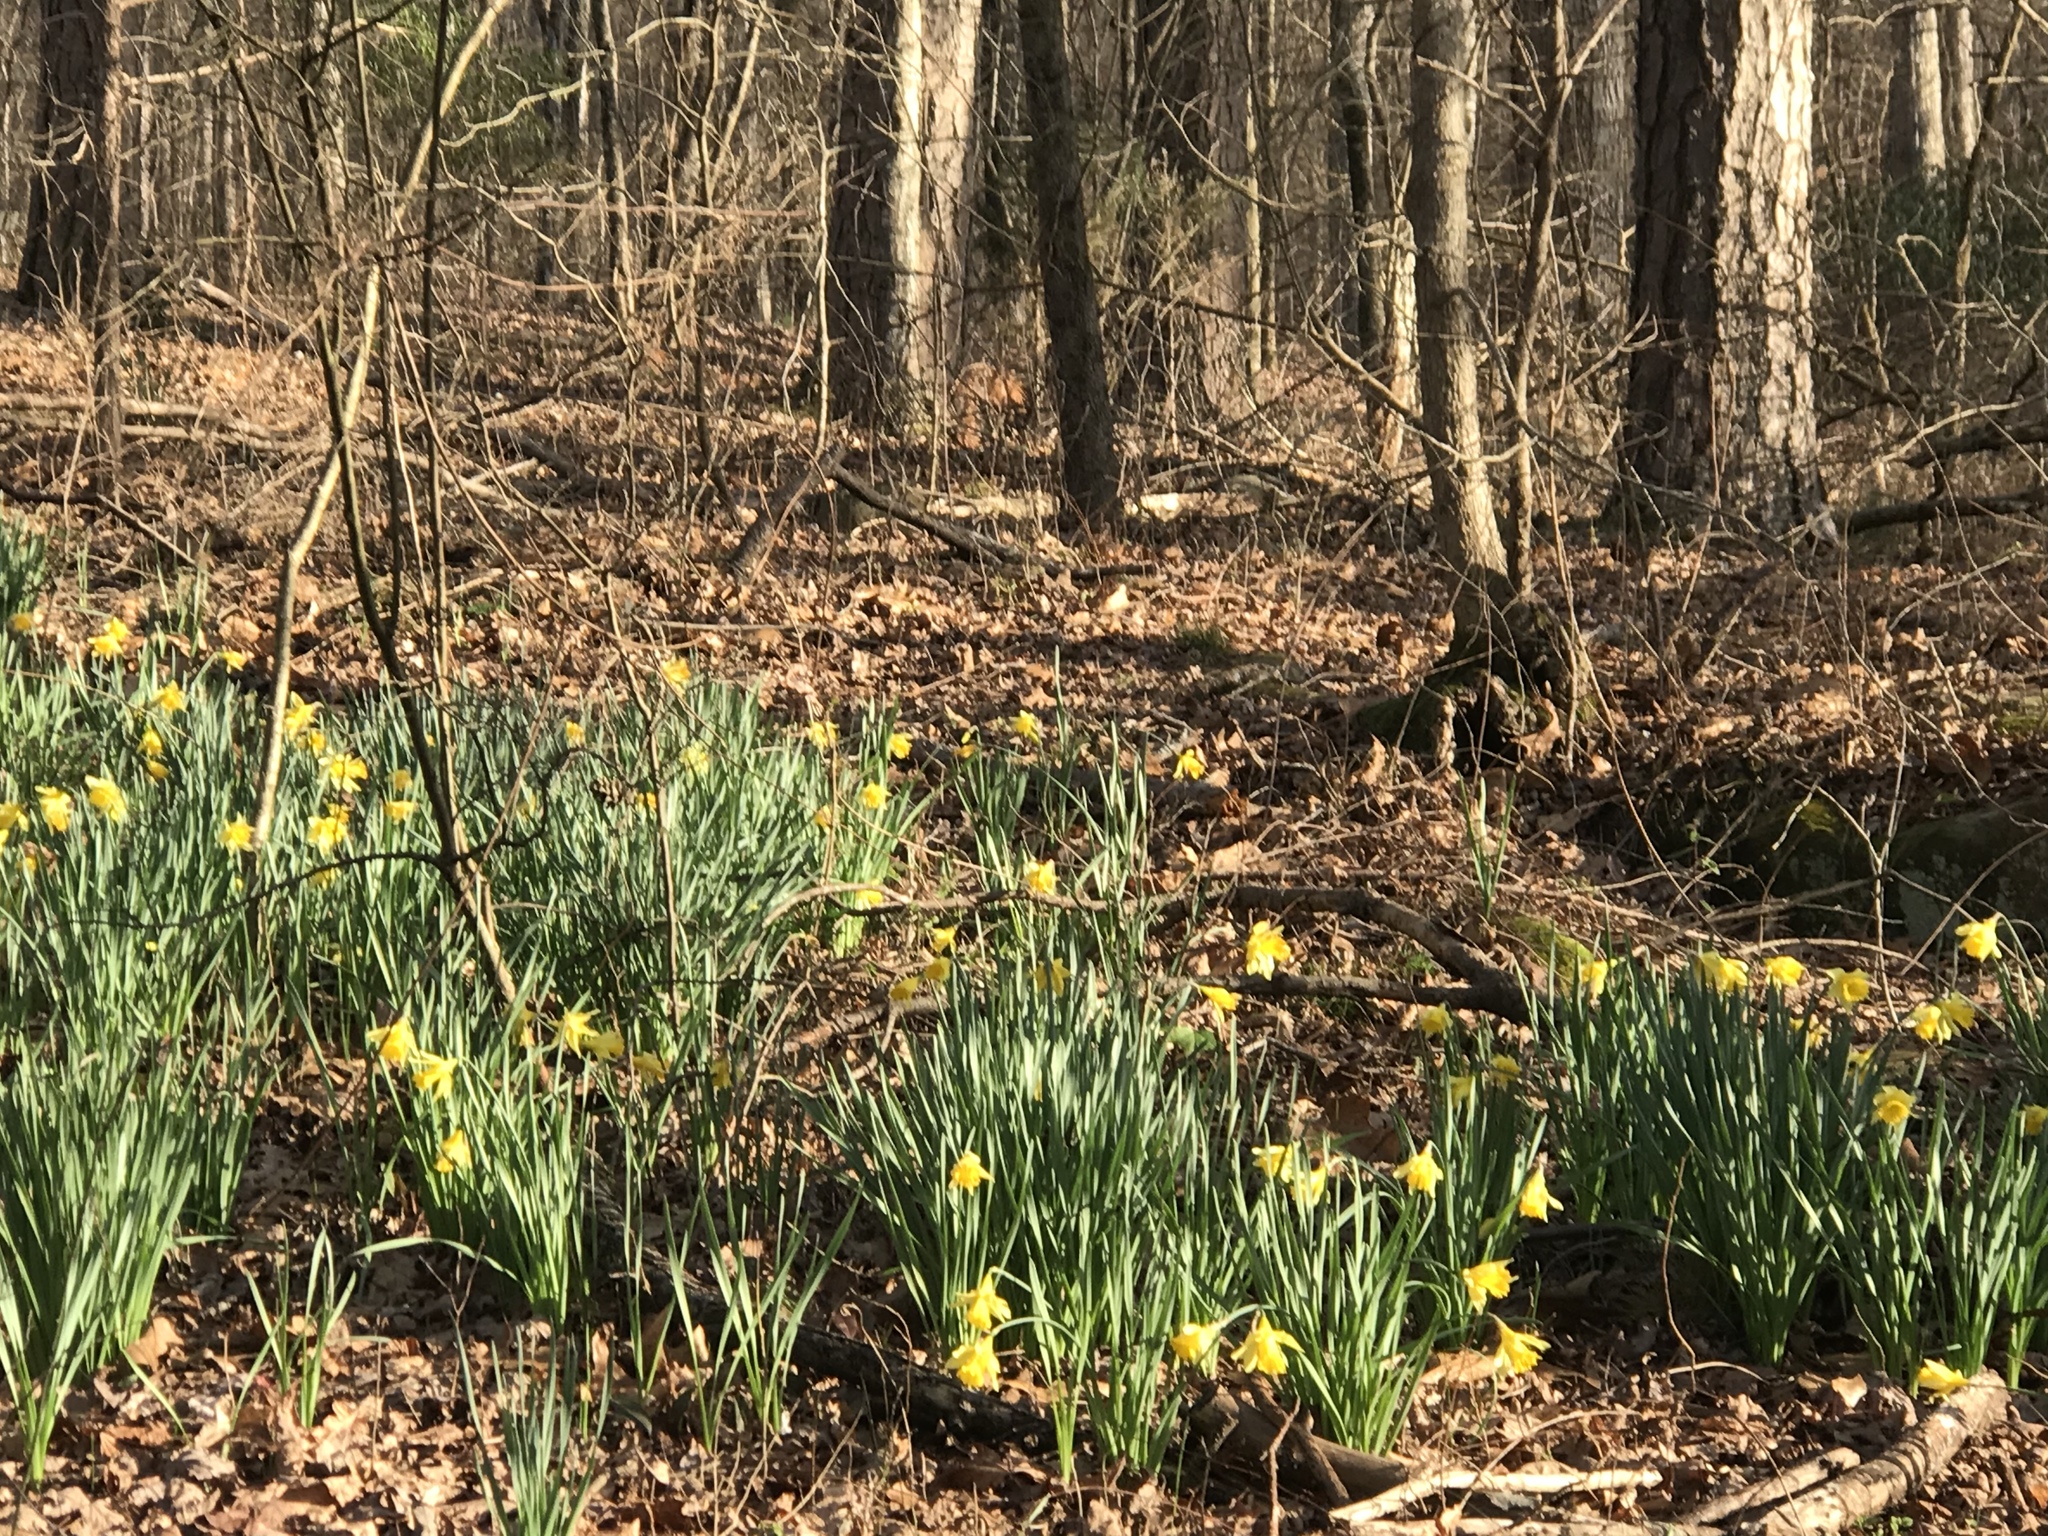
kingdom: Plantae
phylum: Tracheophyta
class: Liliopsida
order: Asparagales
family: Amaryllidaceae
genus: Narcissus
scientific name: Narcissus pseudonarcissus
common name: Daffodil
